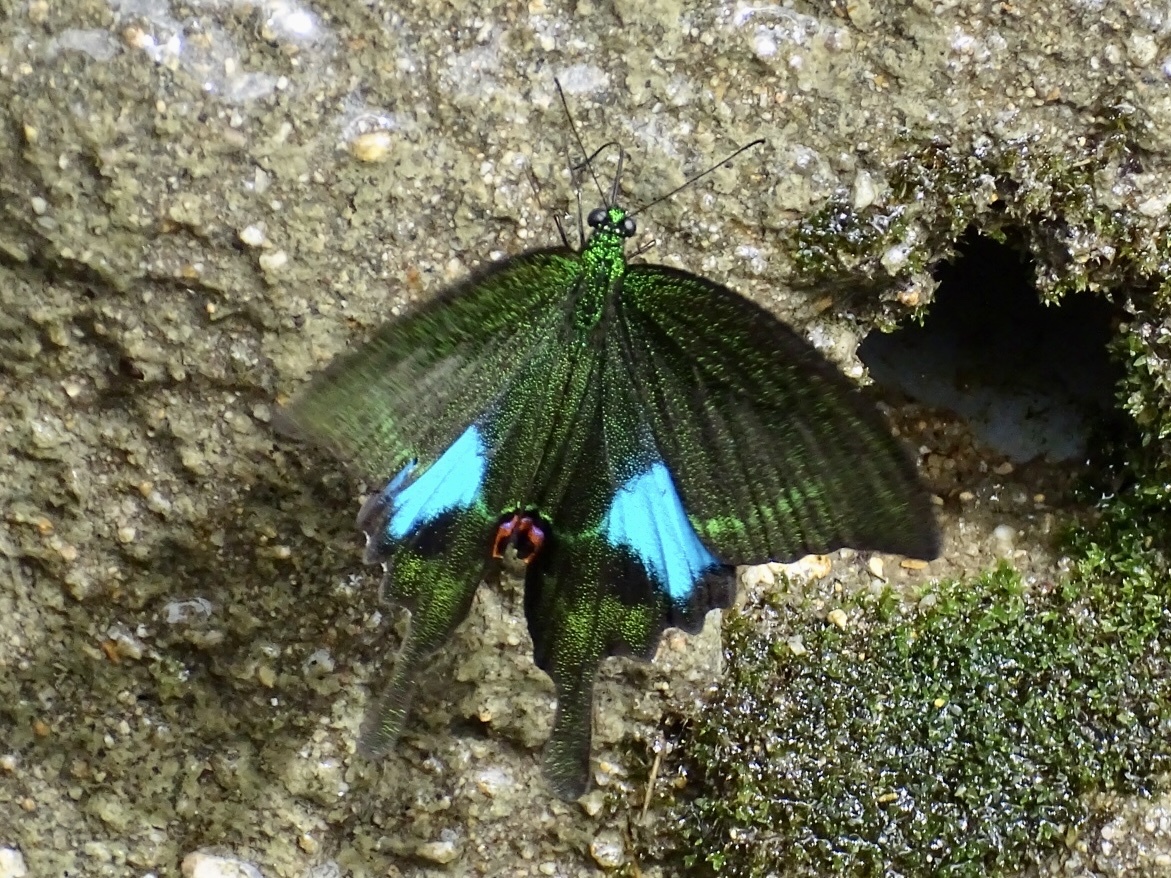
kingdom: Animalia
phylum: Arthropoda
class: Insecta
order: Lepidoptera
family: Papilionidae
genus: Papilio
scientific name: Papilio paris
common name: Paris peacock
